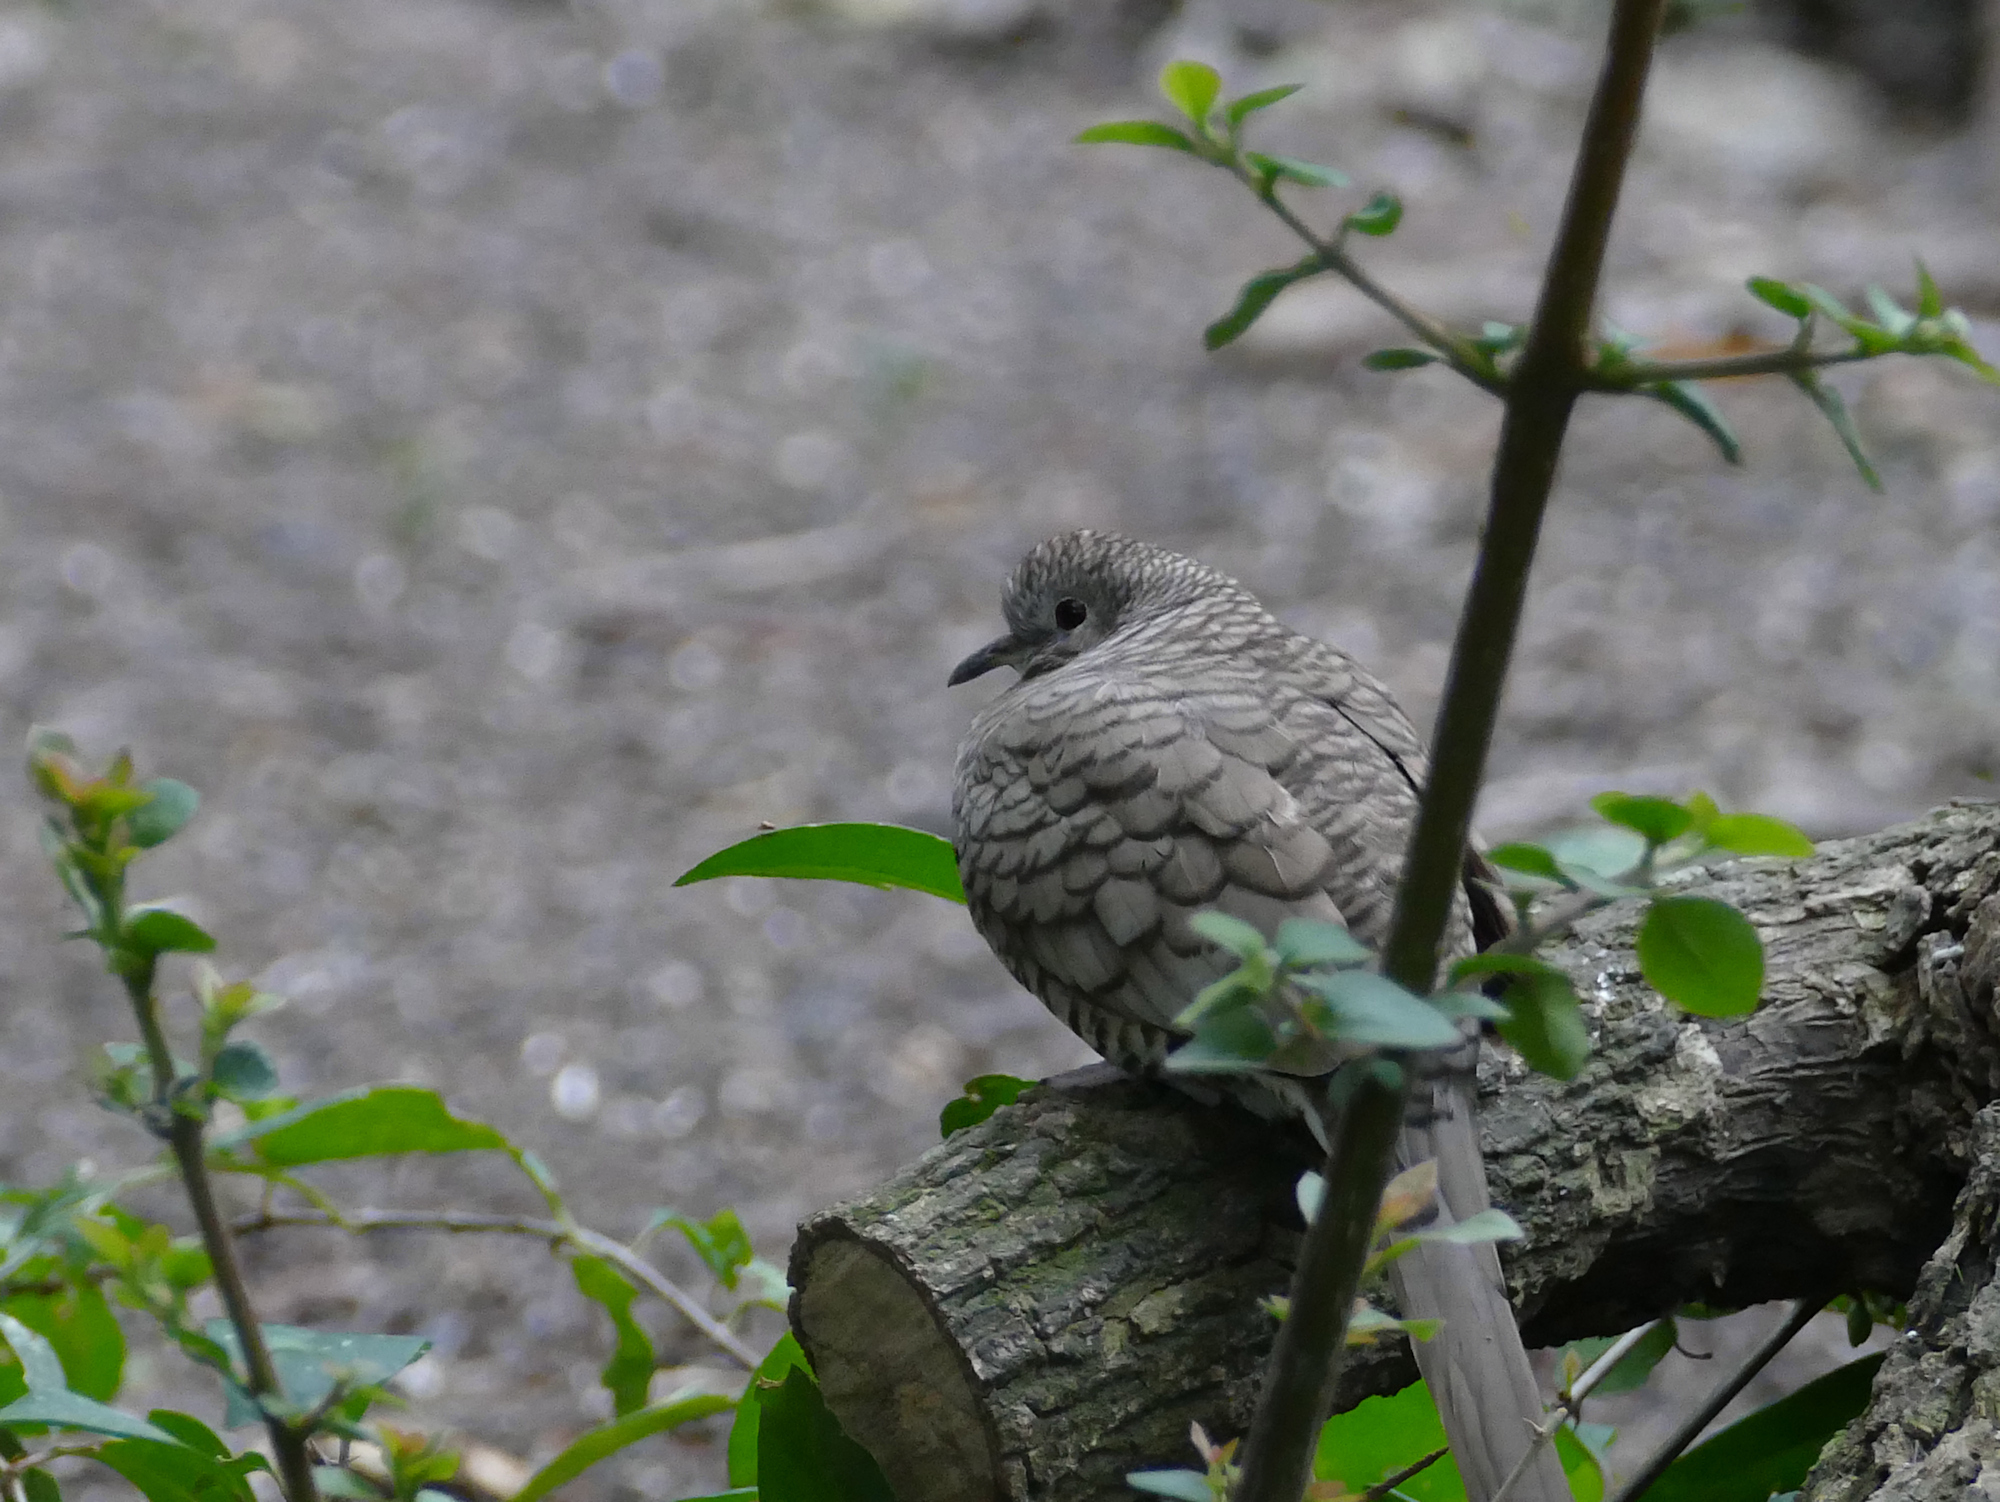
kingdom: Animalia
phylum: Chordata
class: Aves
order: Columbiformes
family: Columbidae
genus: Columbina
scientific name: Columbina inca
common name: Inca dove
